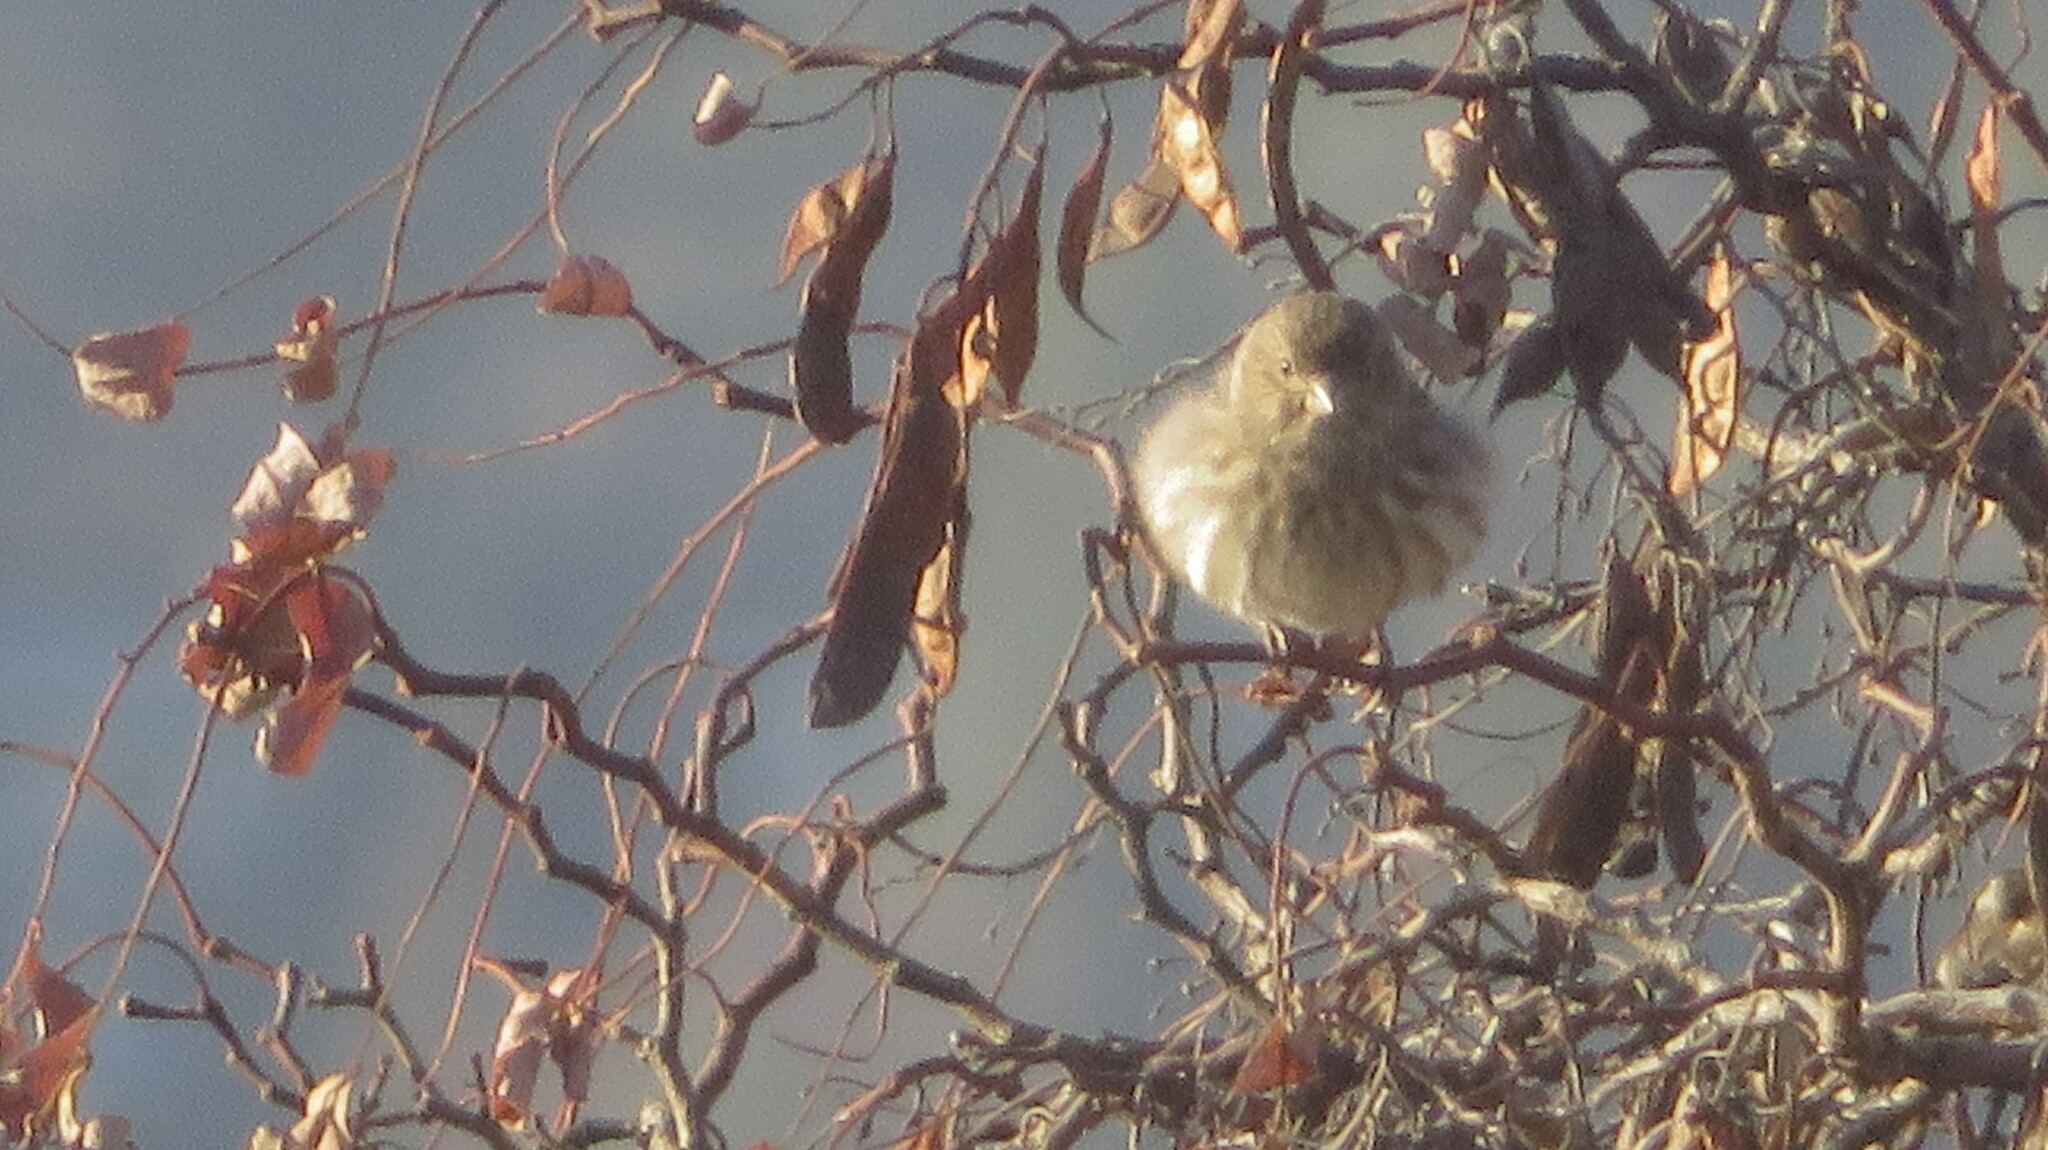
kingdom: Animalia
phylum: Chordata
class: Aves
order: Passeriformes
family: Fringillidae
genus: Haemorhous
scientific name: Haemorhous mexicanus
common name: House finch
